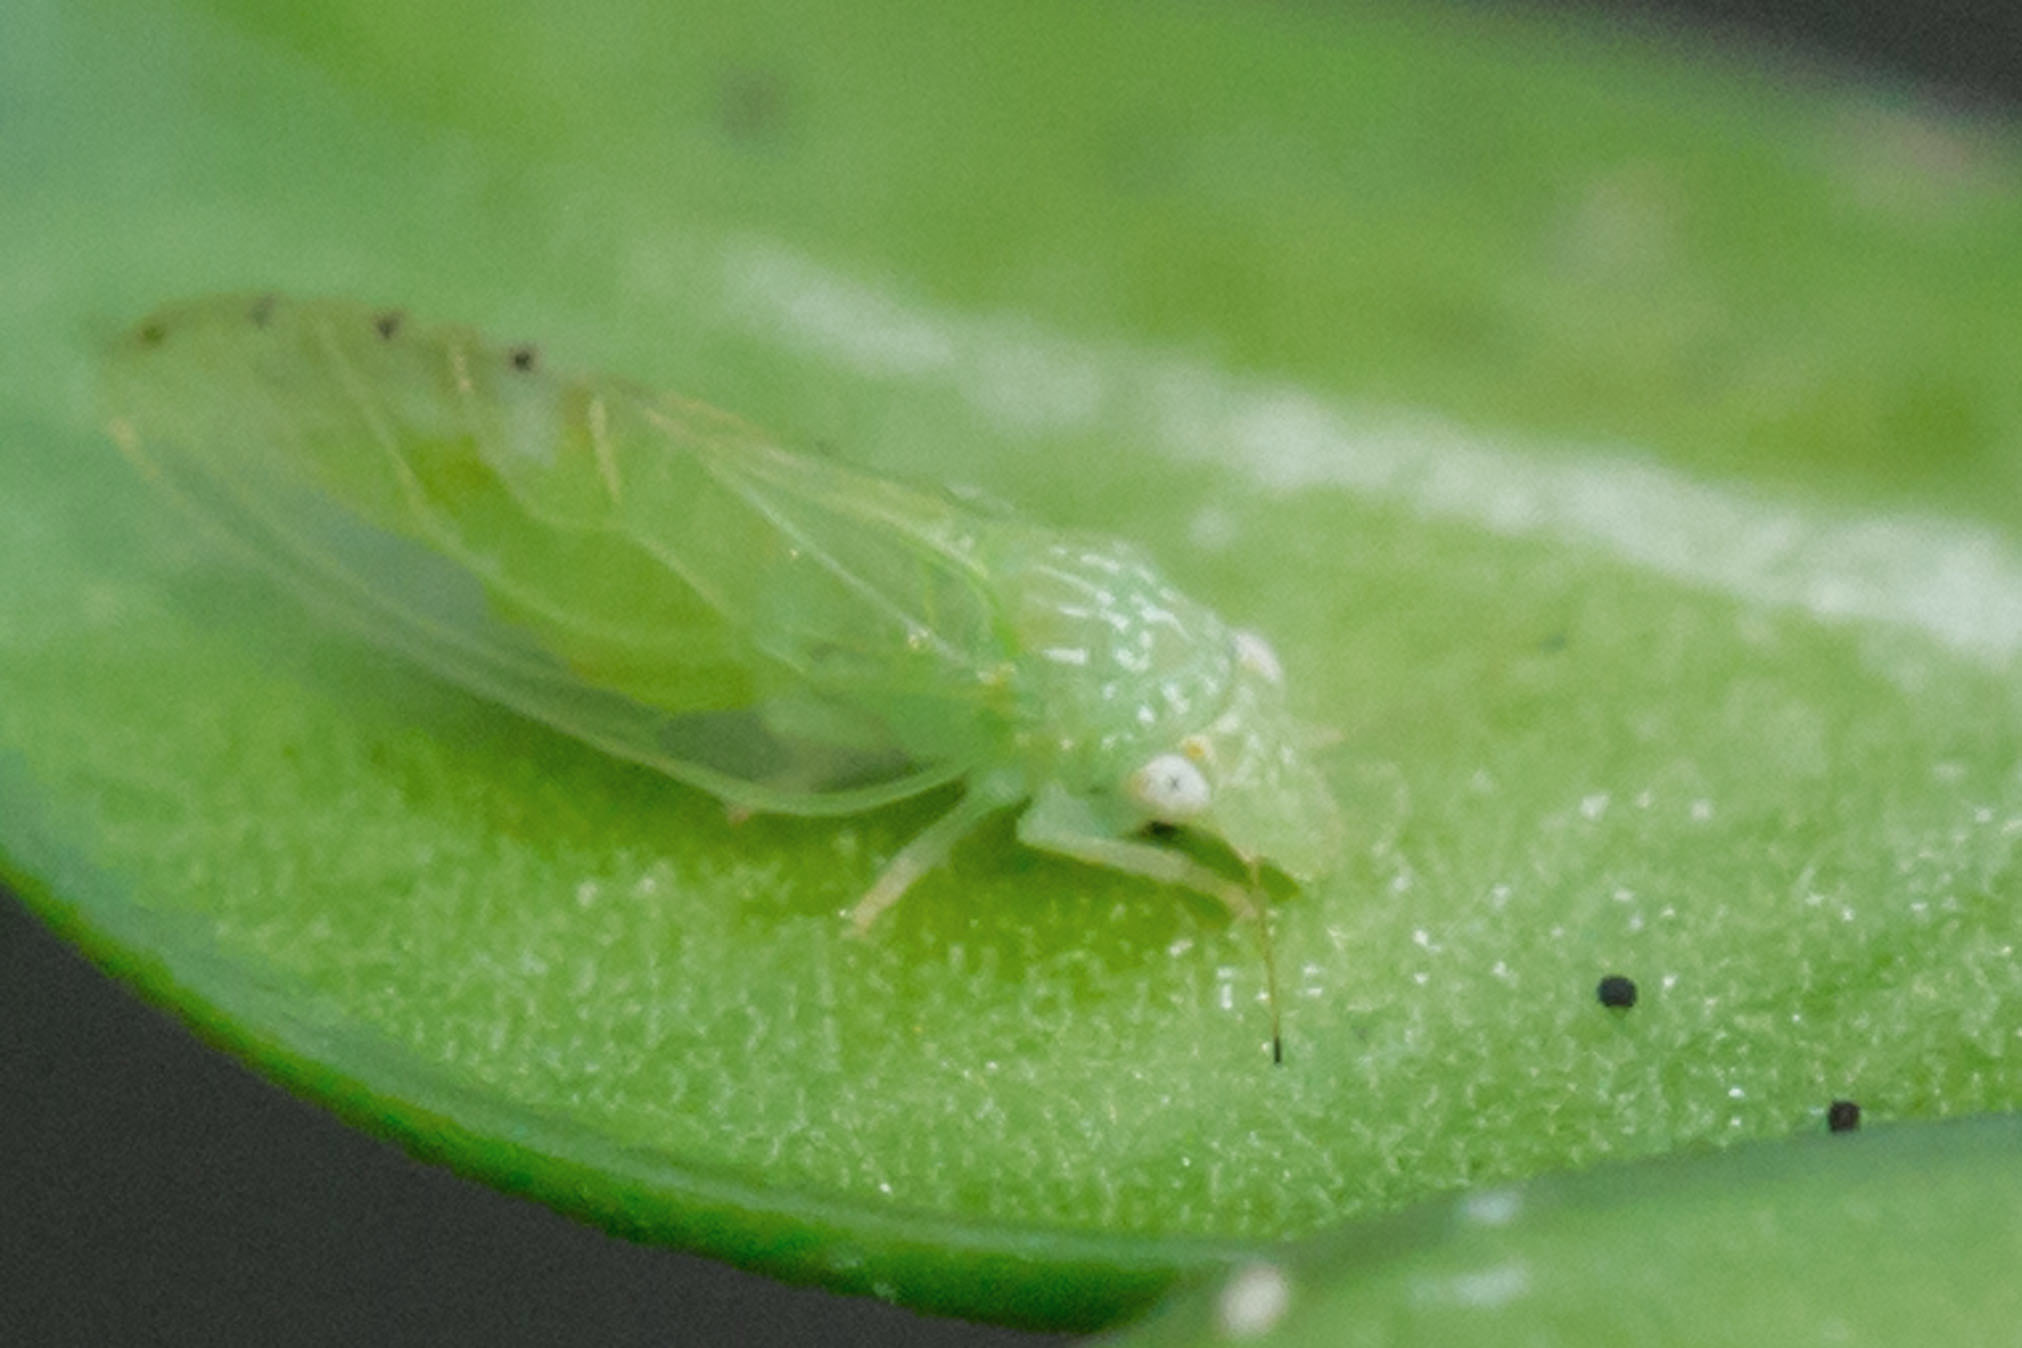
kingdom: Animalia
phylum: Arthropoda
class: Insecta
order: Hemiptera
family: Psyllidae
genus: Spanioneura
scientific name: Spanioneura fonscolombii
